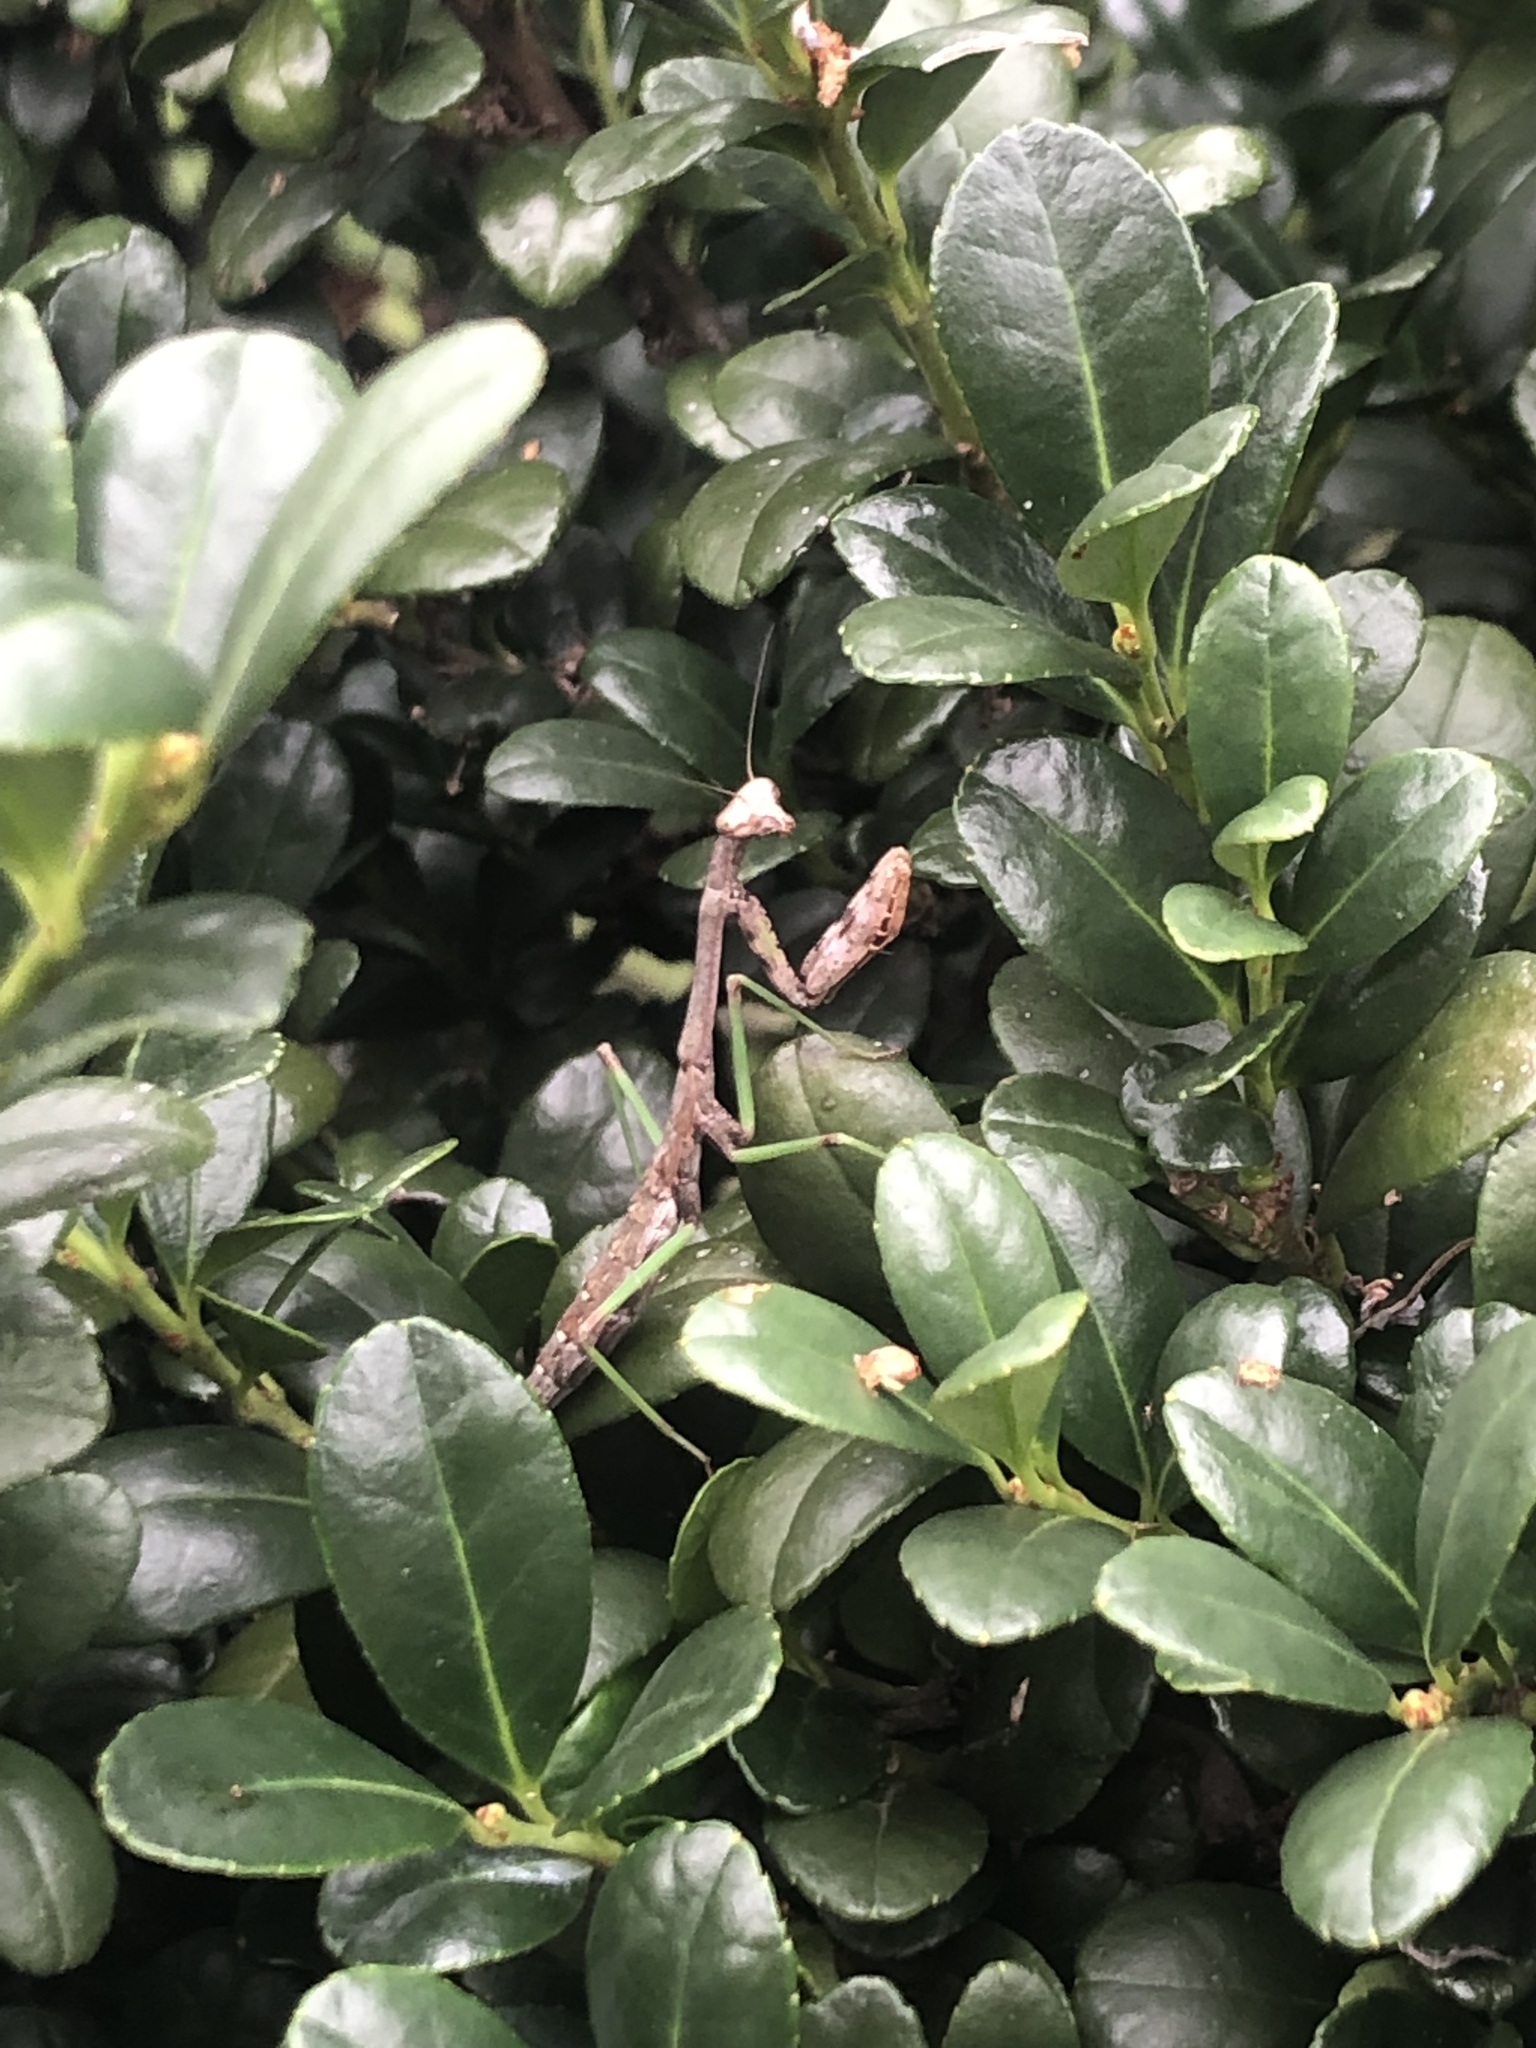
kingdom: Animalia
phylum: Arthropoda
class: Insecta
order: Mantodea
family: Mantidae
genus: Stagmomantis
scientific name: Stagmomantis carolina
